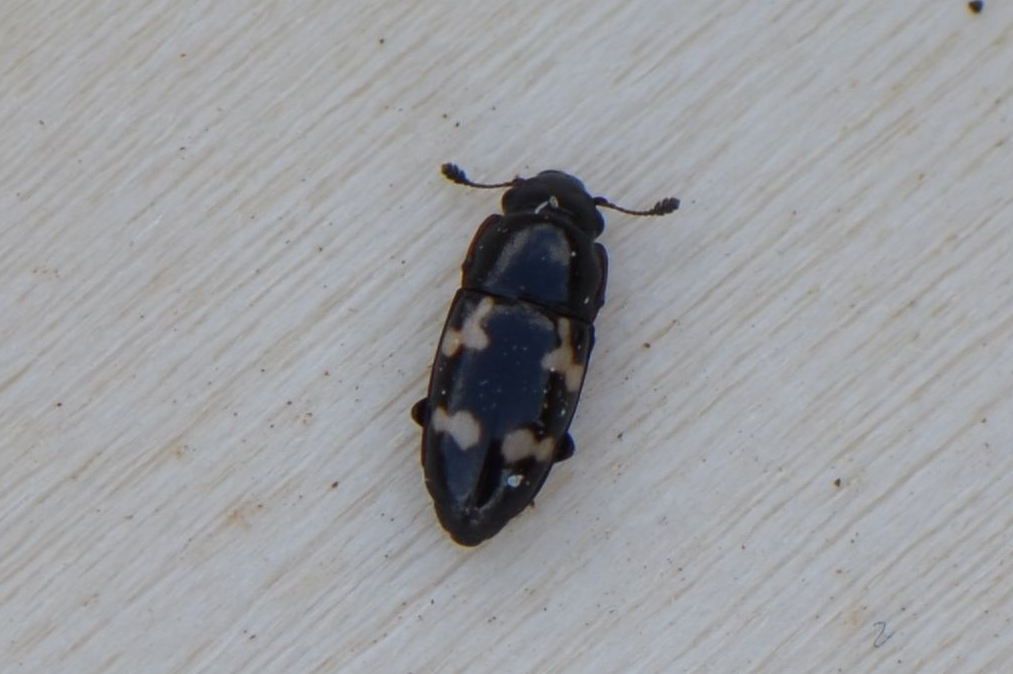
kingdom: Animalia
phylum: Arthropoda
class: Insecta
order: Coleoptera
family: Nitidulidae
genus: Glischrochilus
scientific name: Glischrochilus quadriguttatus
